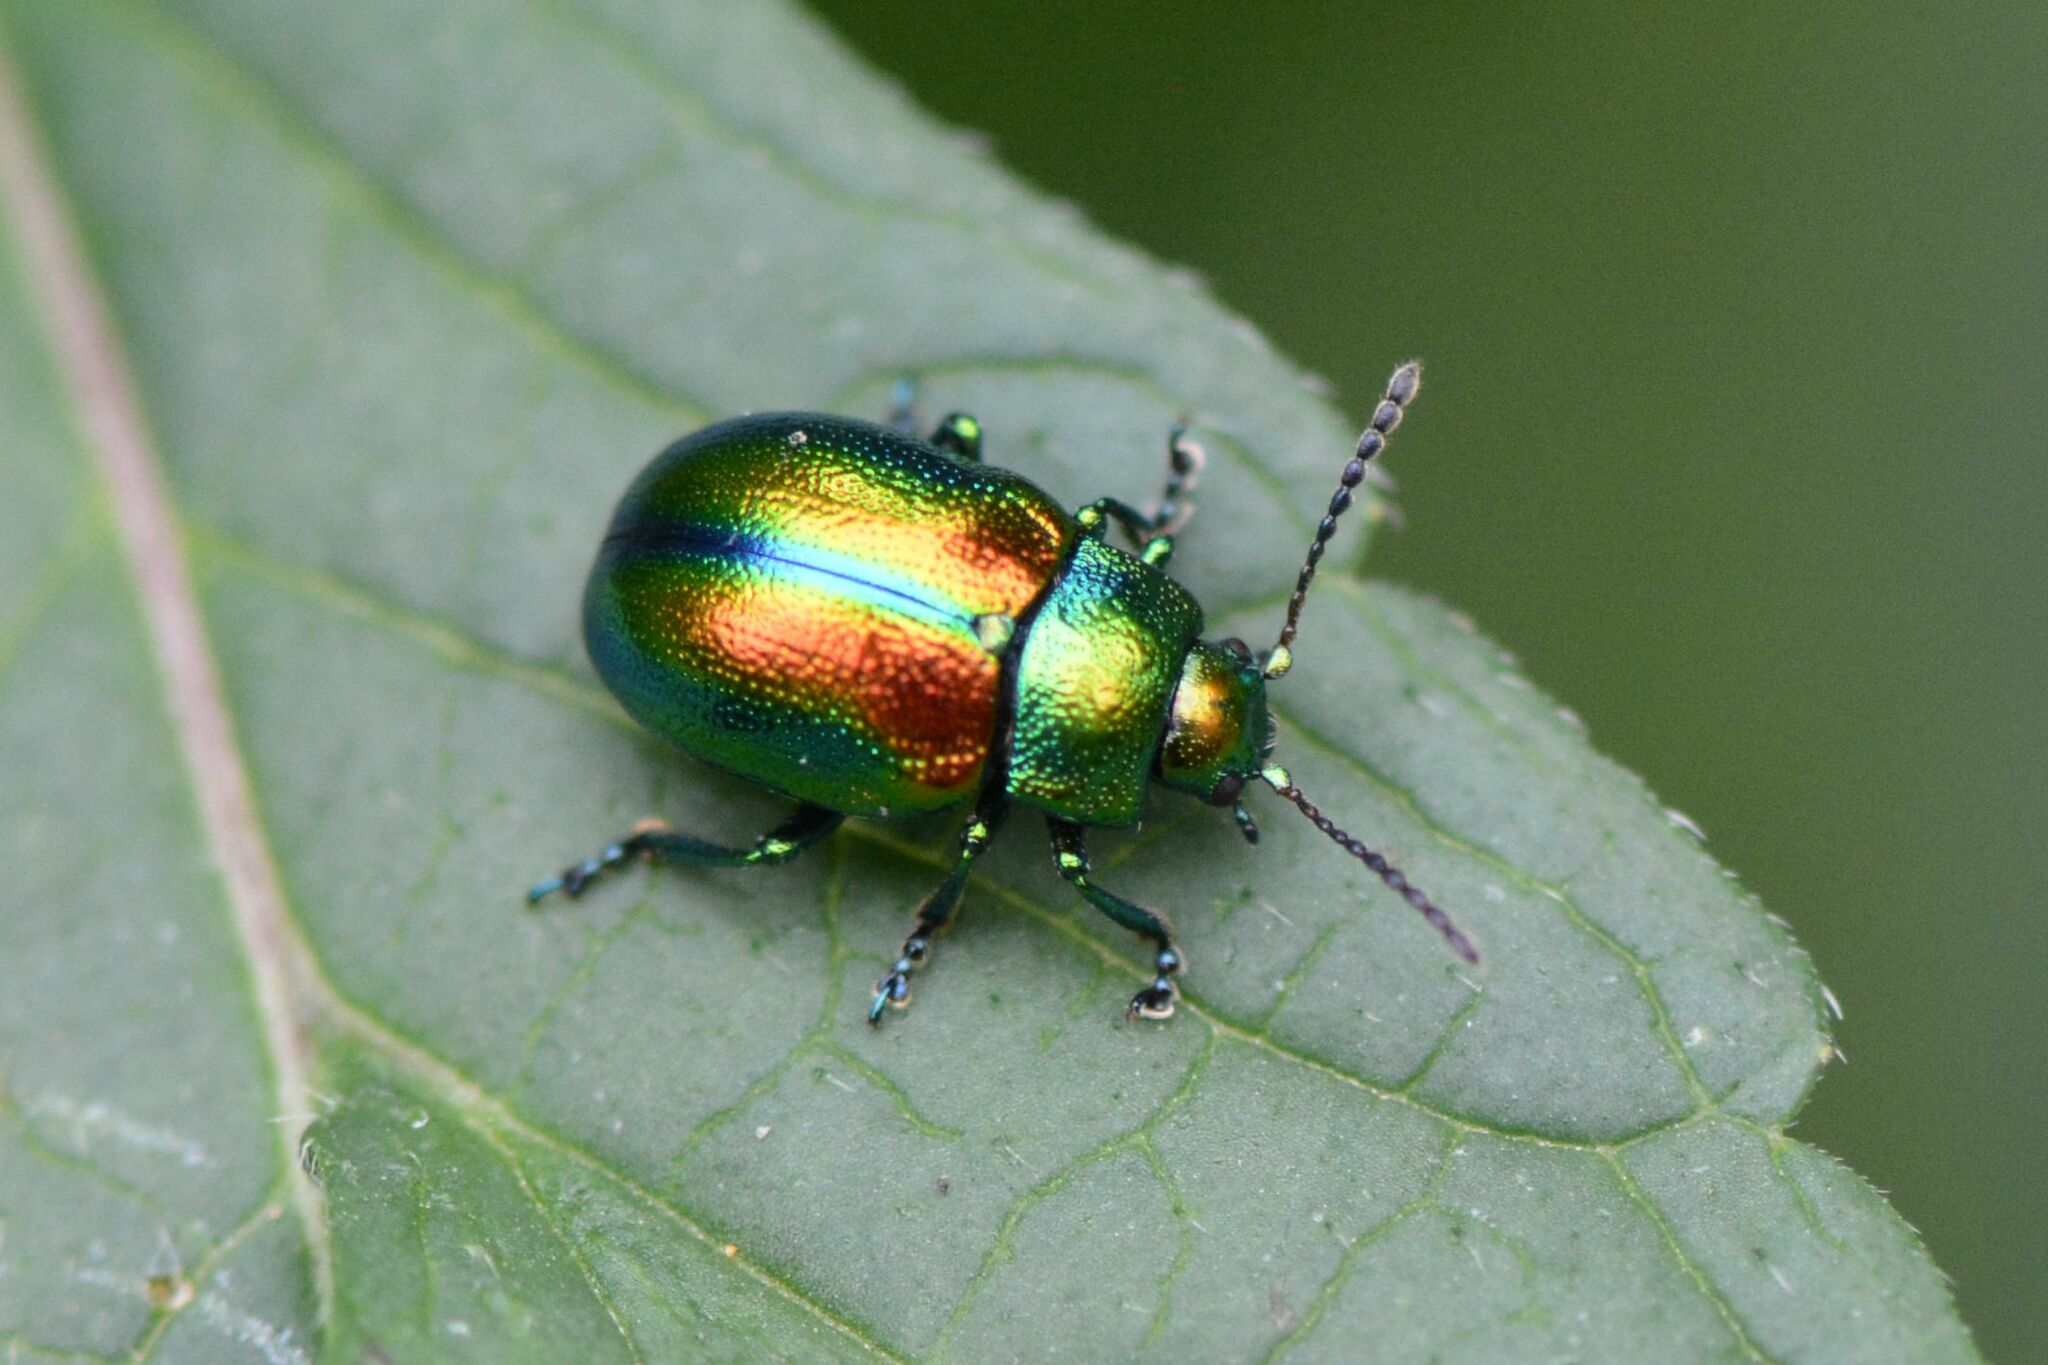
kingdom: Animalia
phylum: Arthropoda
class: Insecta
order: Coleoptera
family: Chrysomelidae
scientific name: Chrysomelidae
